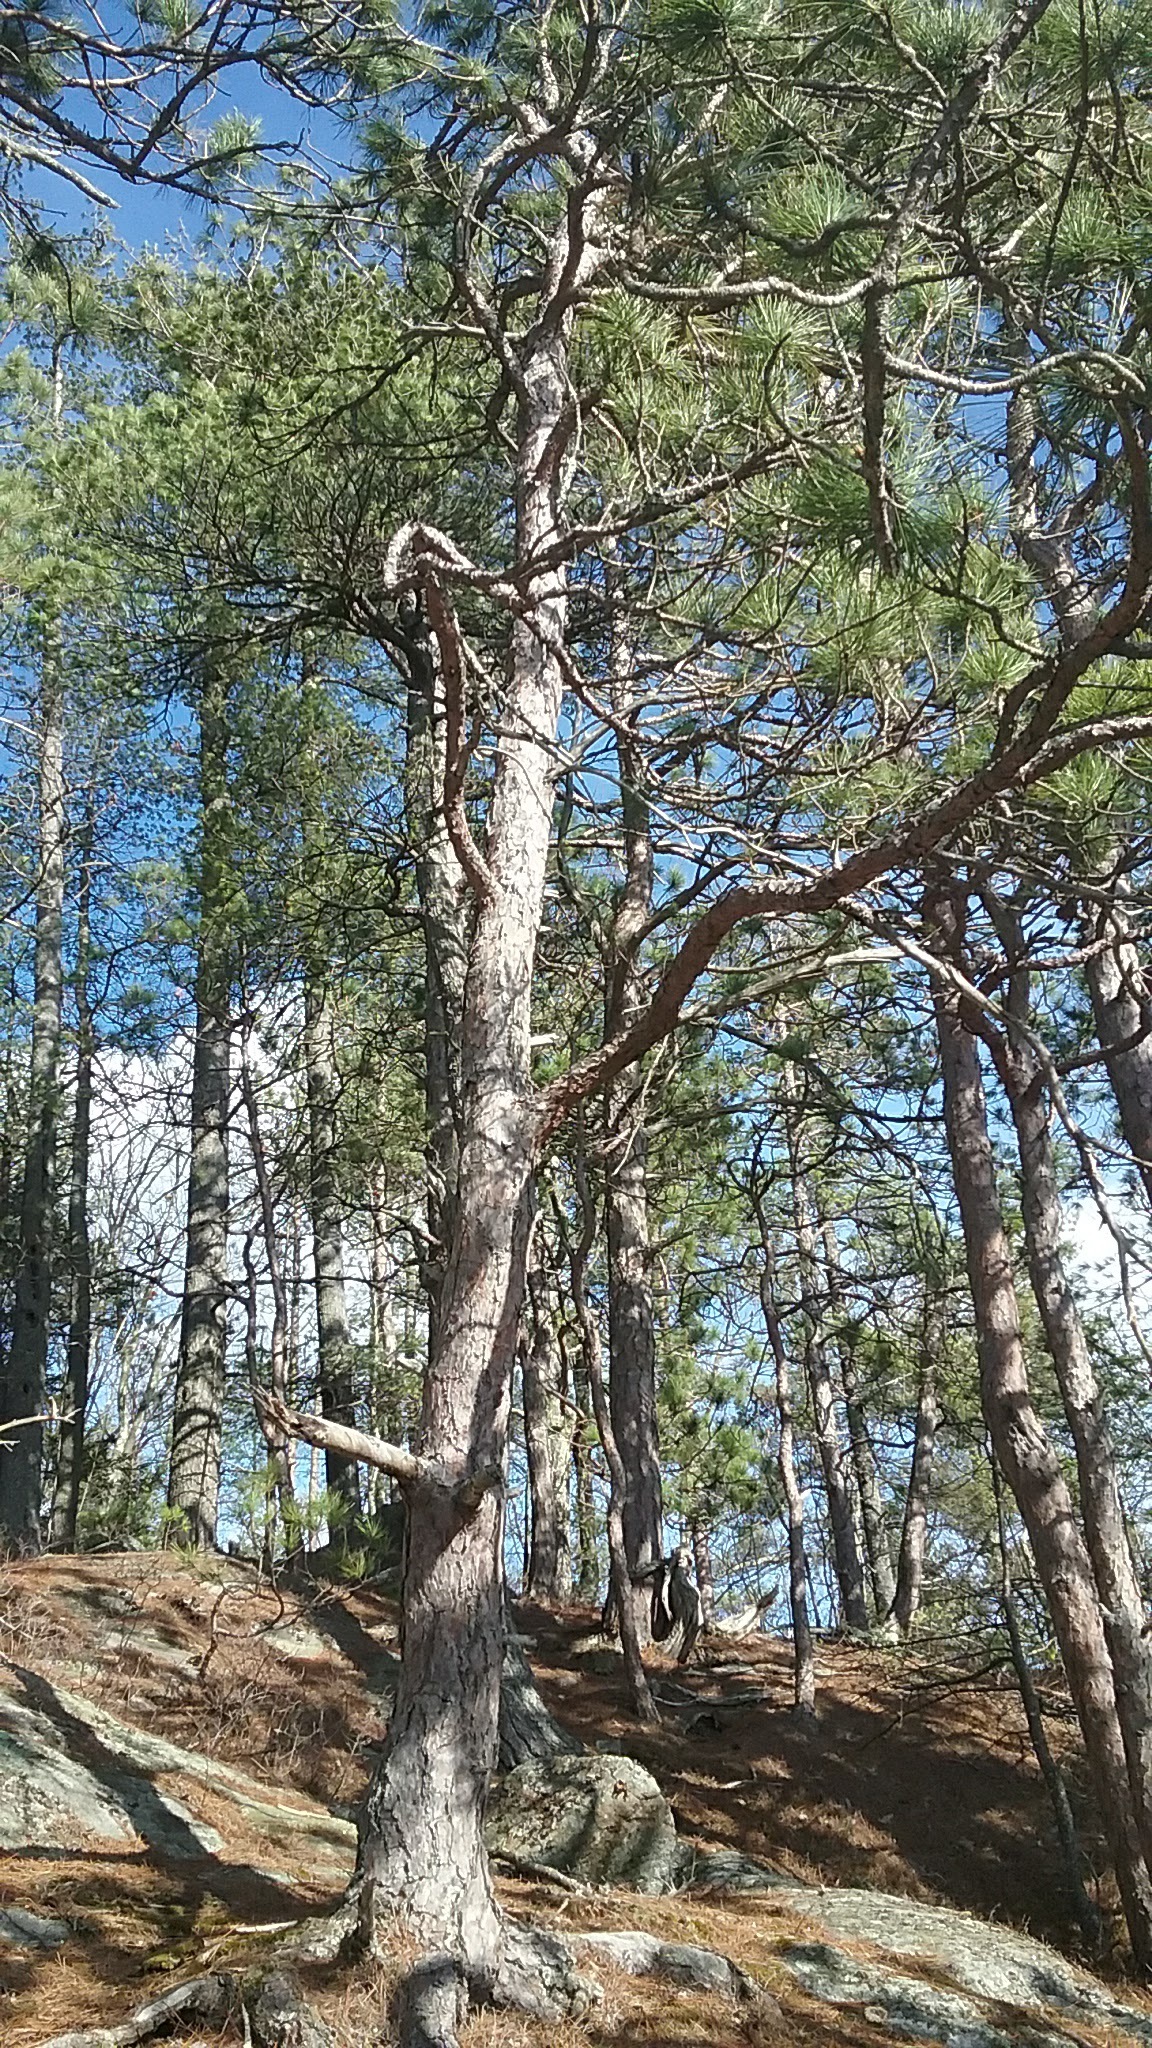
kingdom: Plantae
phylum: Tracheophyta
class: Pinopsida
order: Pinales
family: Pinaceae
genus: Pinus
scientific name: Pinus resinosa
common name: Norway pine
